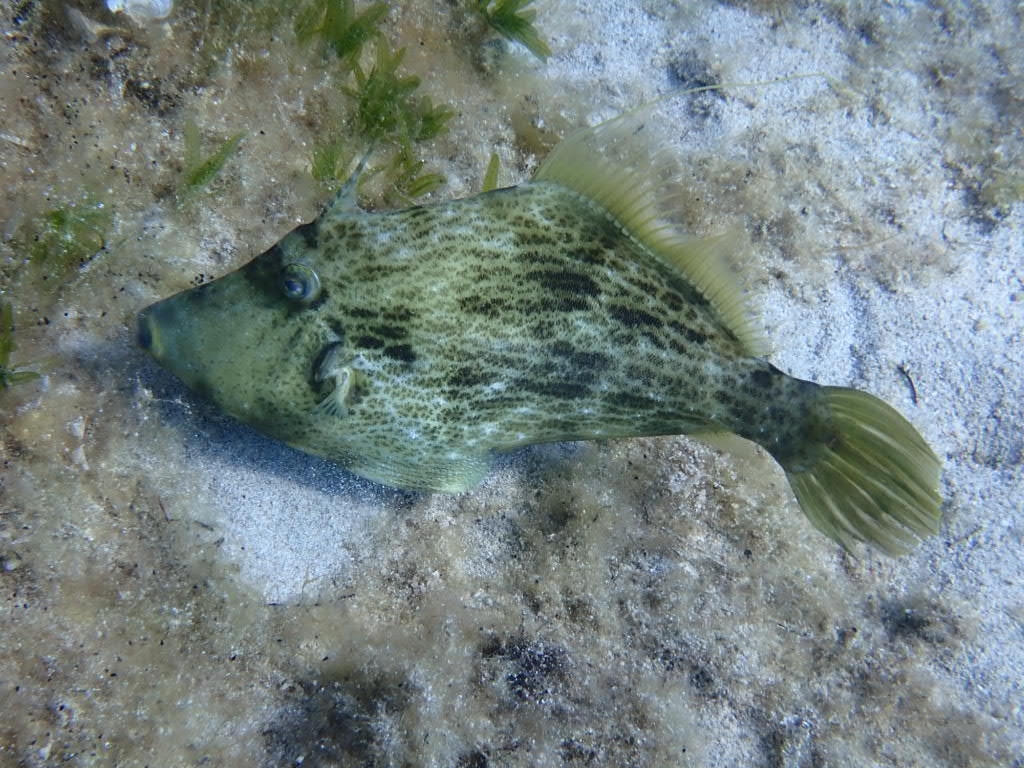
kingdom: Animalia
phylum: Chordata
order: Tetraodontiformes
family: Monacanthidae
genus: Stephanolepis
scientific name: Stephanolepis diaspros
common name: Reticulated leatherjacket
